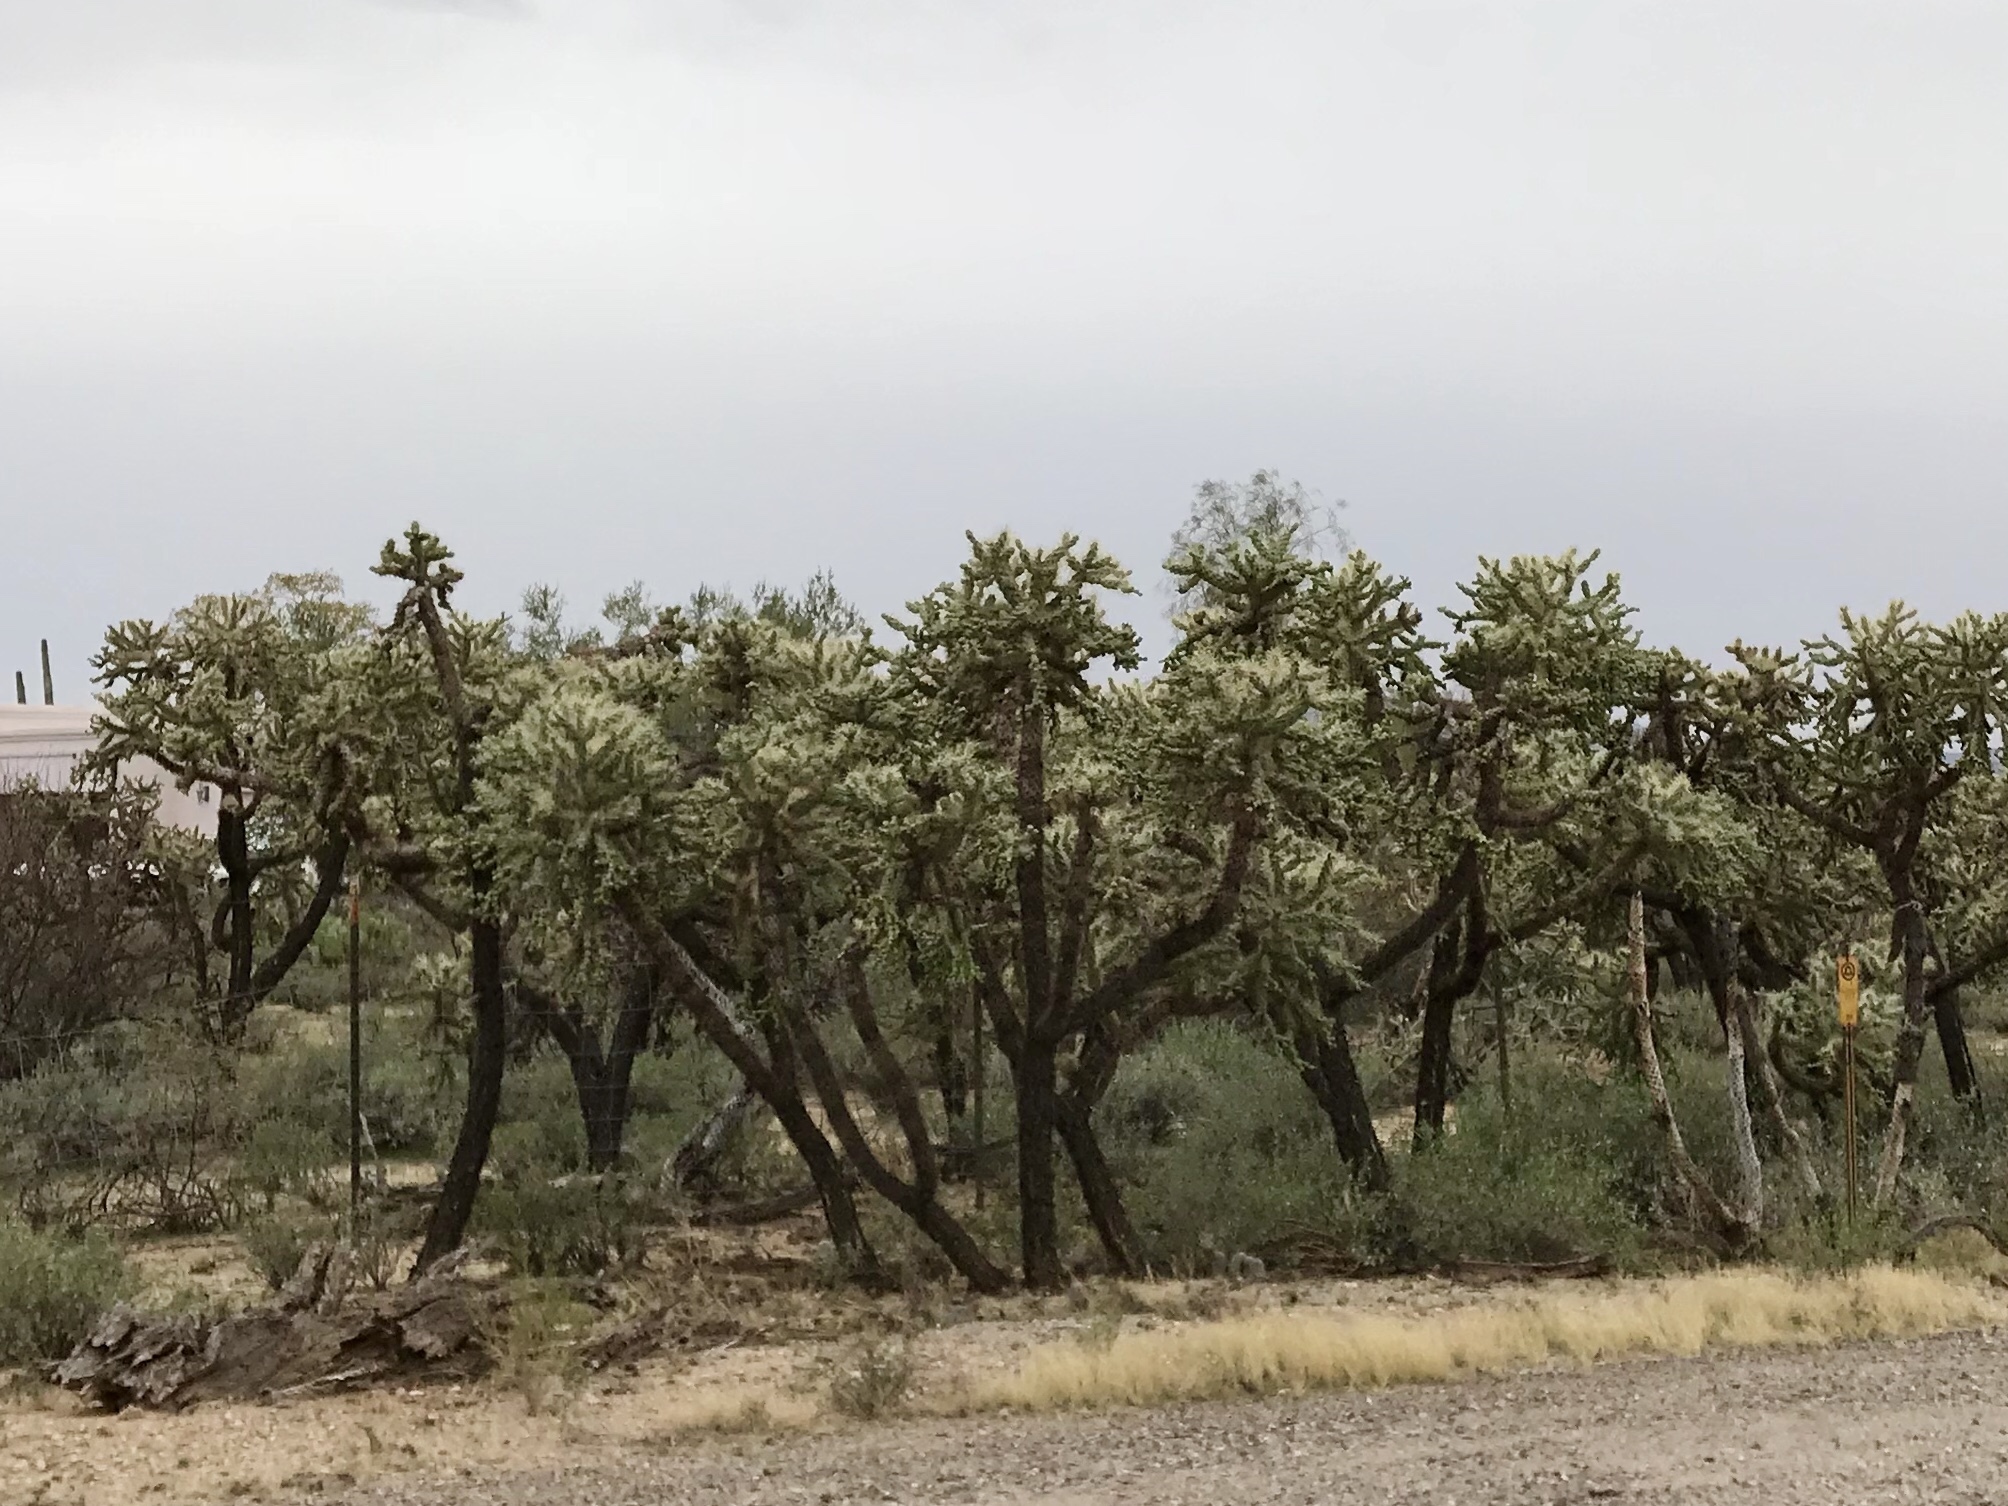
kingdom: Plantae
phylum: Tracheophyta
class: Magnoliopsida
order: Caryophyllales
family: Cactaceae
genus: Cylindropuntia
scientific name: Cylindropuntia fulgida
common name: Jumping cholla
